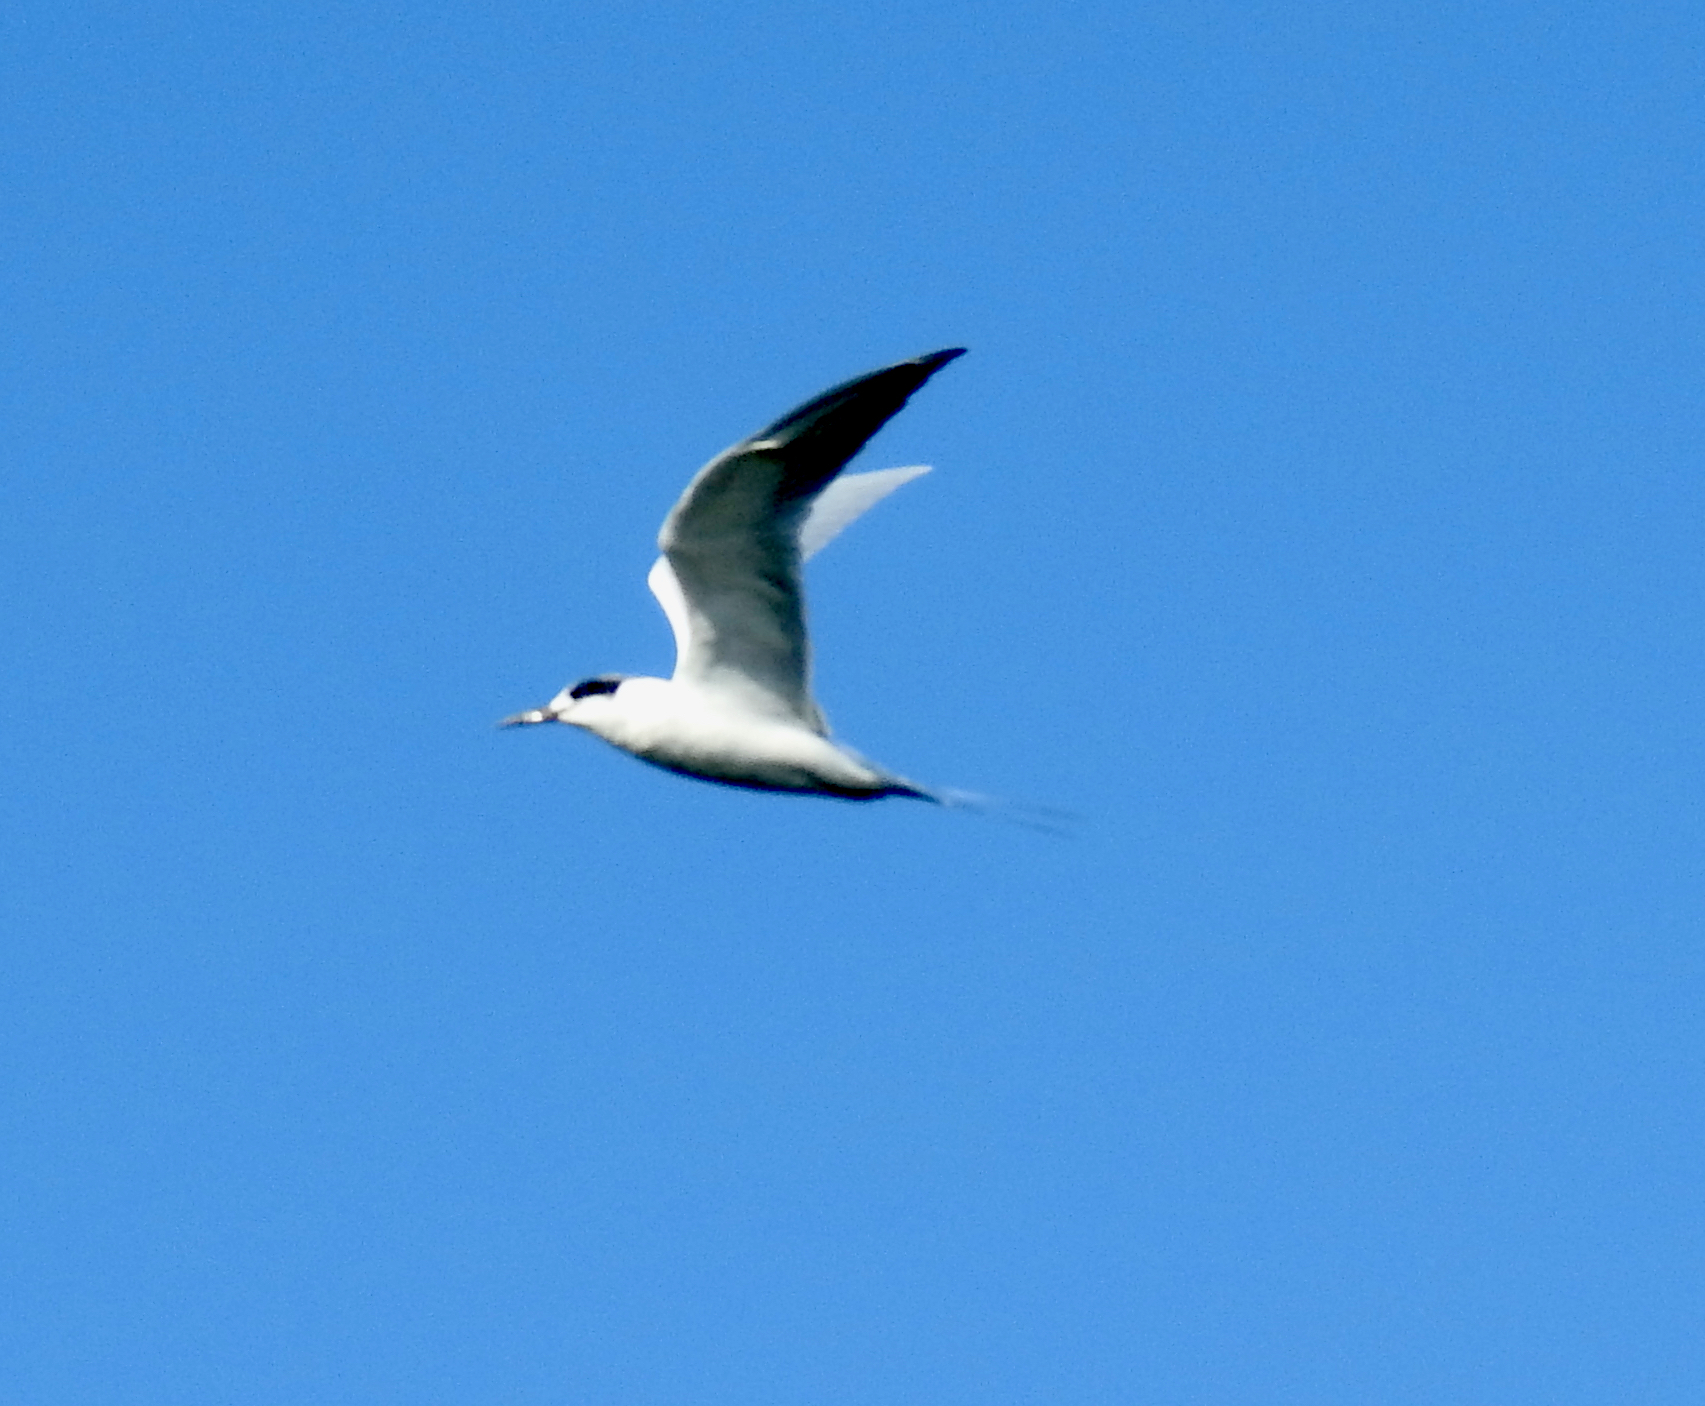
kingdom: Animalia
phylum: Chordata
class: Aves
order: Charadriiformes
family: Laridae
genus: Sterna
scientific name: Sterna forsteri
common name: Forster's tern
